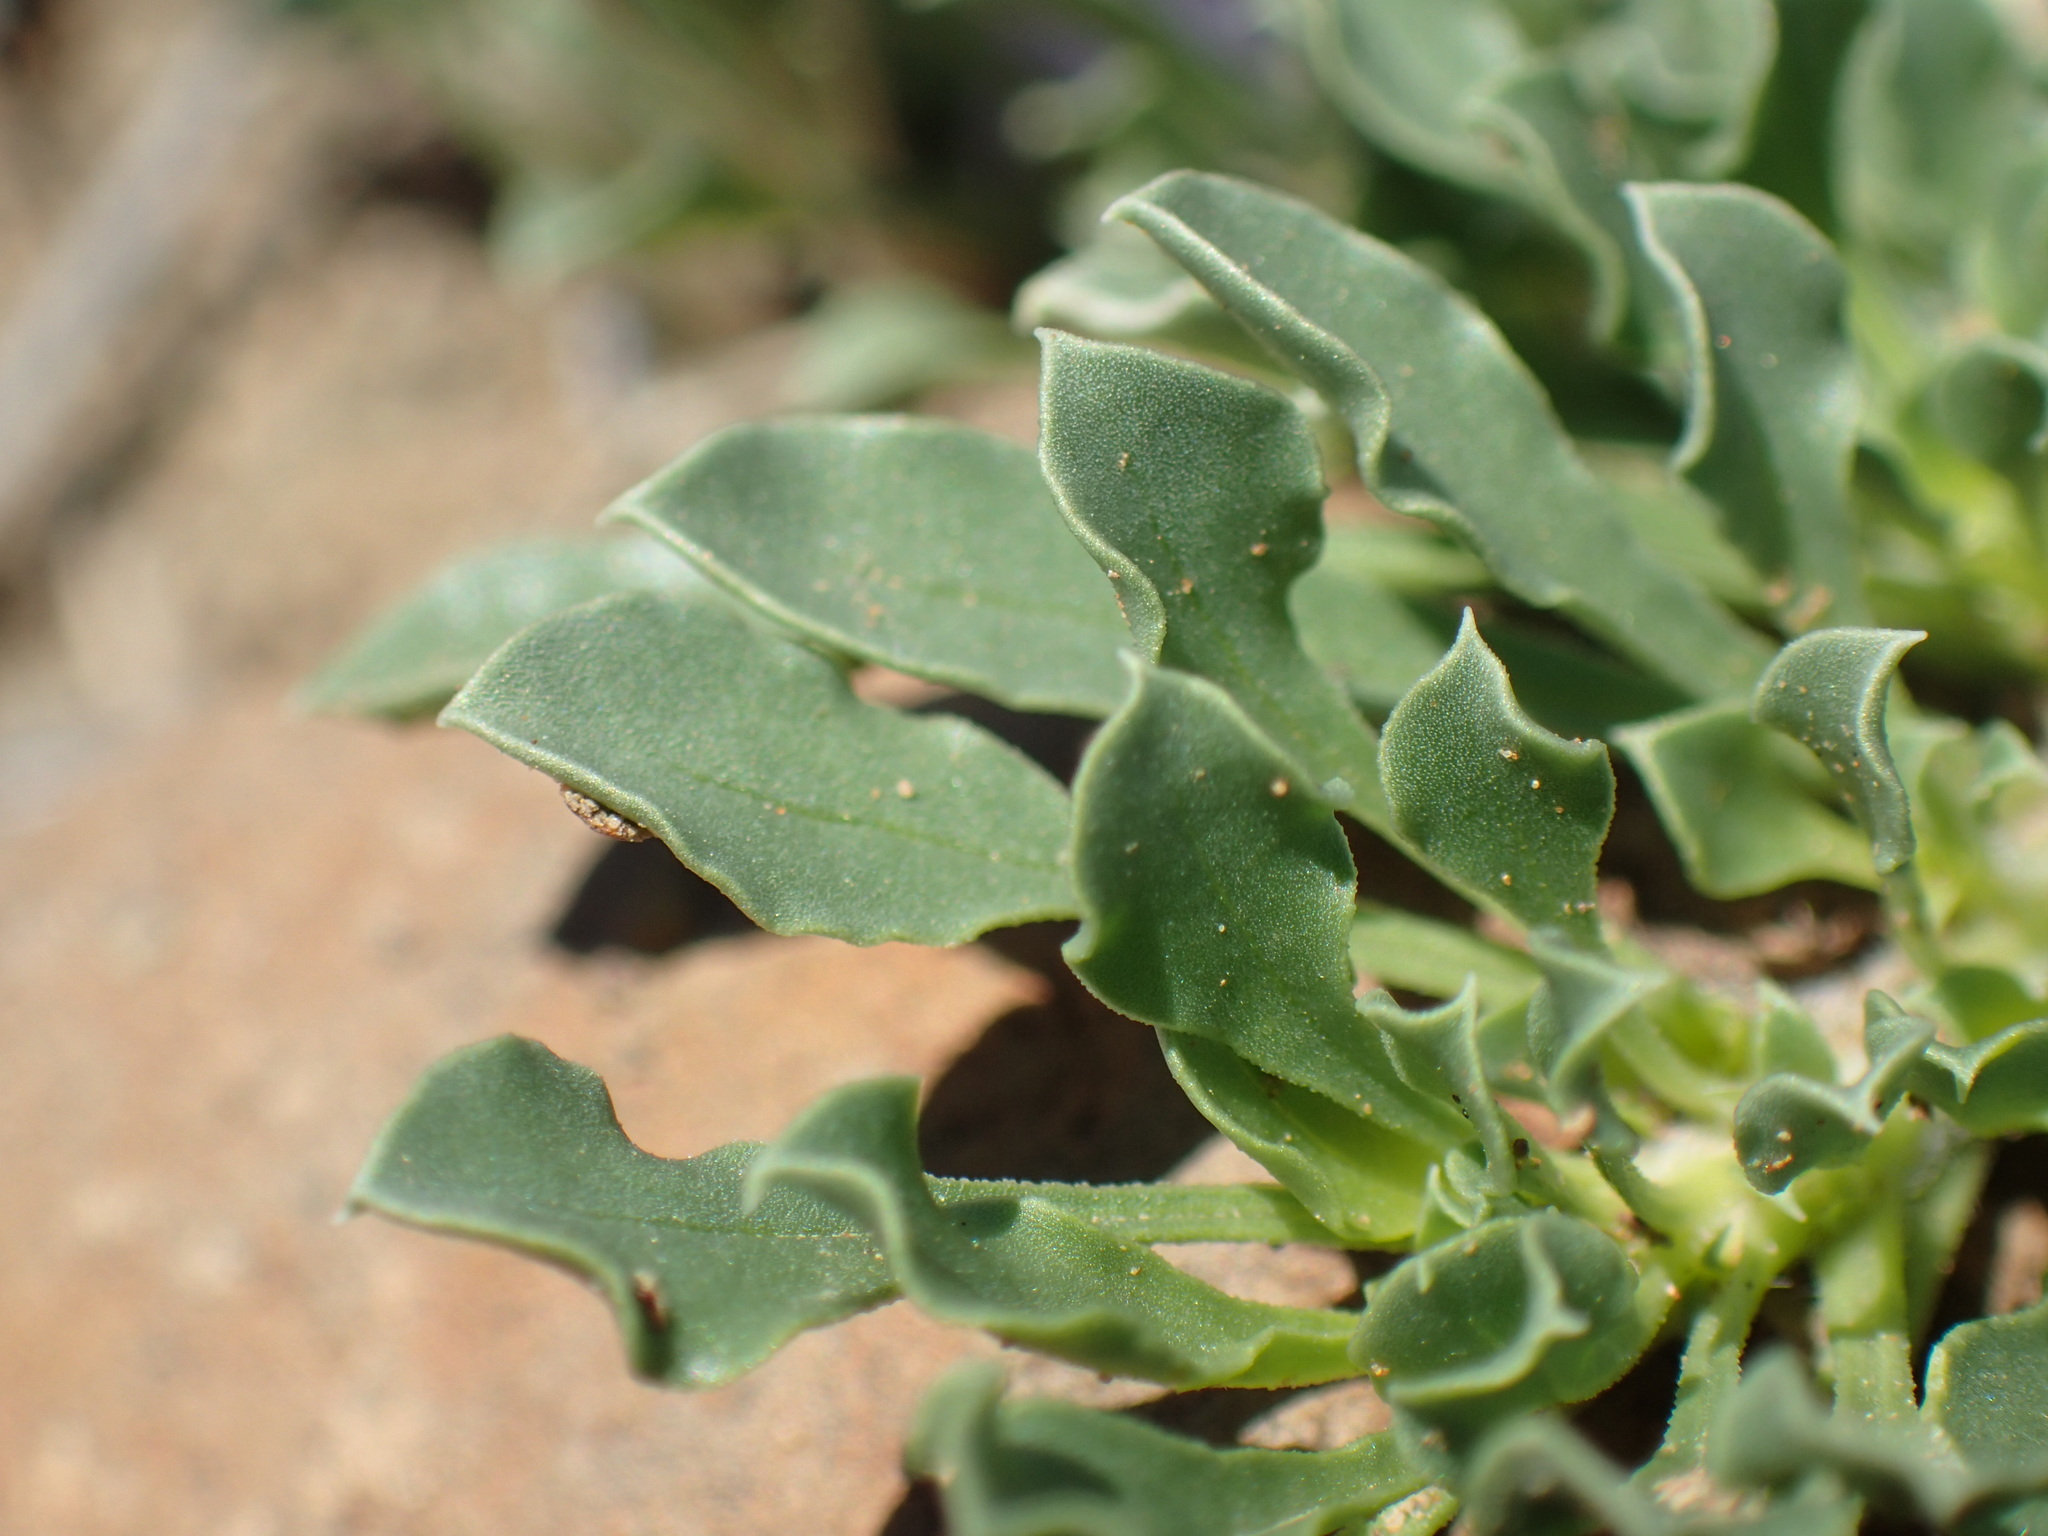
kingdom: Plantae
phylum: Tracheophyta
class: Magnoliopsida
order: Lamiales
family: Scrophulariaceae
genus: Aptosimum
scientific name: Aptosimum indivisum
